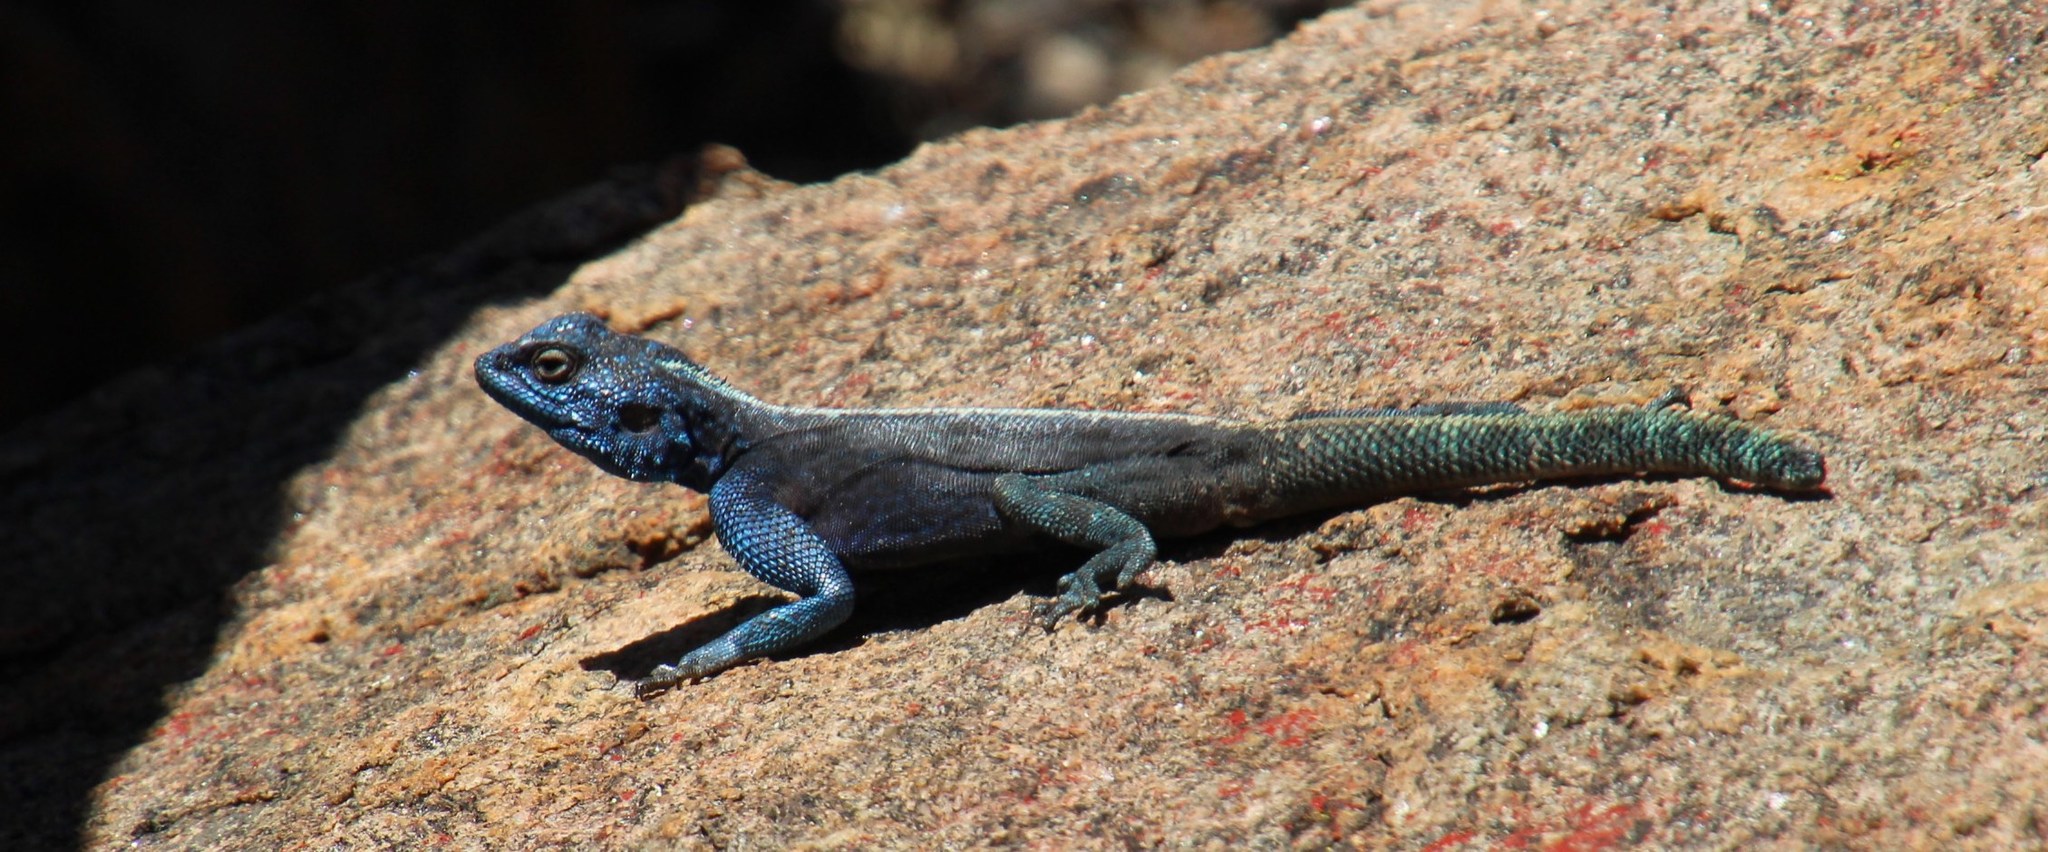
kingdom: Animalia
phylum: Chordata
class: Squamata
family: Agamidae
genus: Agama
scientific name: Agama atra
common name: Southern african rock agama
